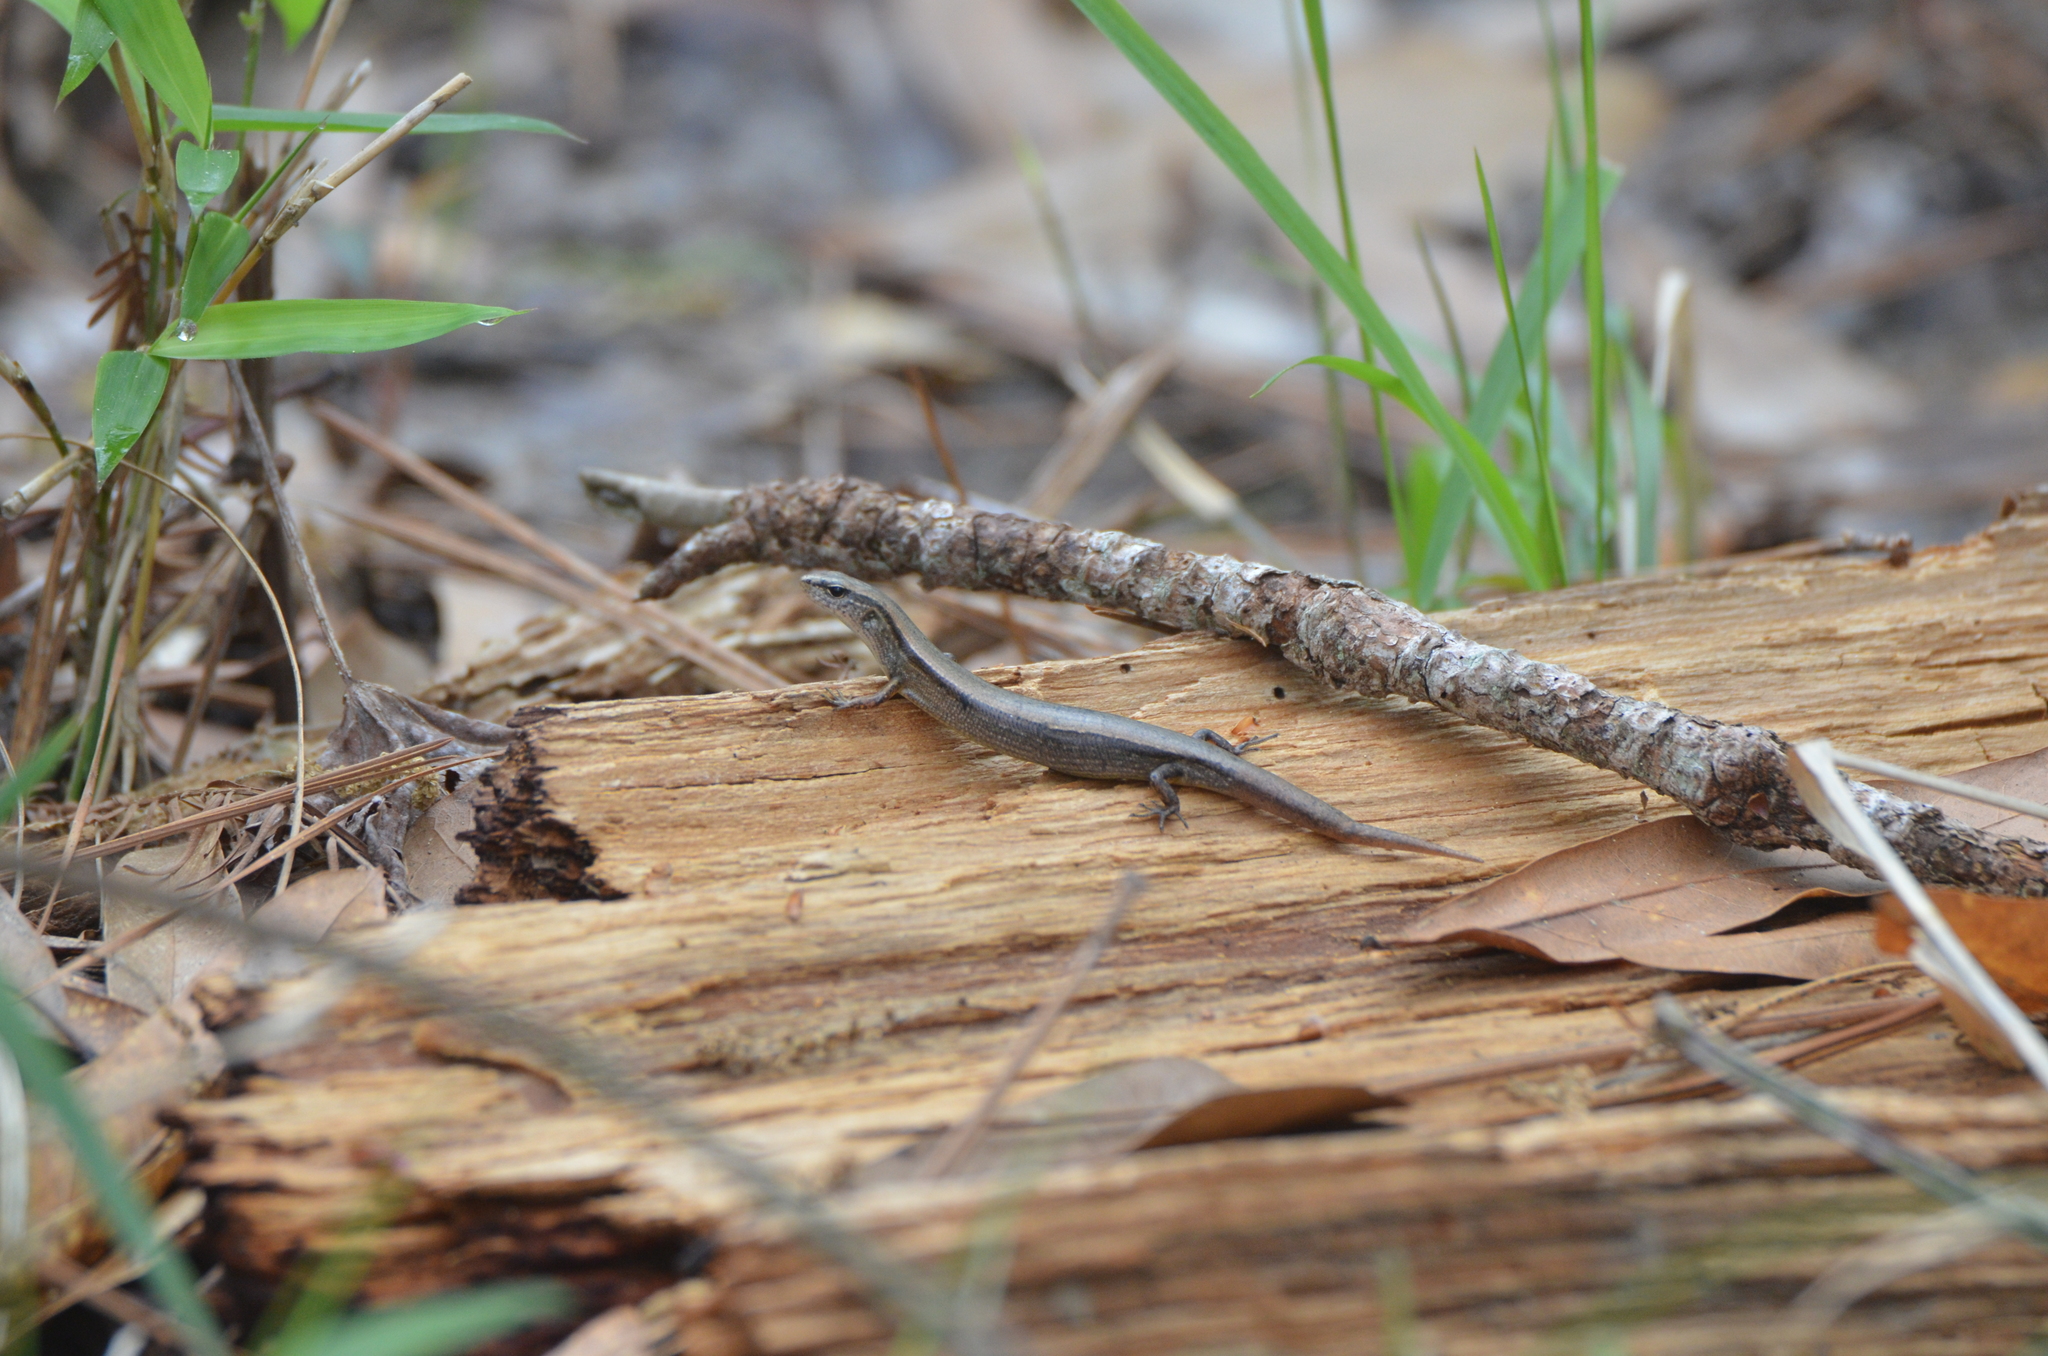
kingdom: Animalia
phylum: Chordata
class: Squamata
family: Scincidae
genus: Scincella
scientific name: Scincella lateralis
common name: Ground skink
